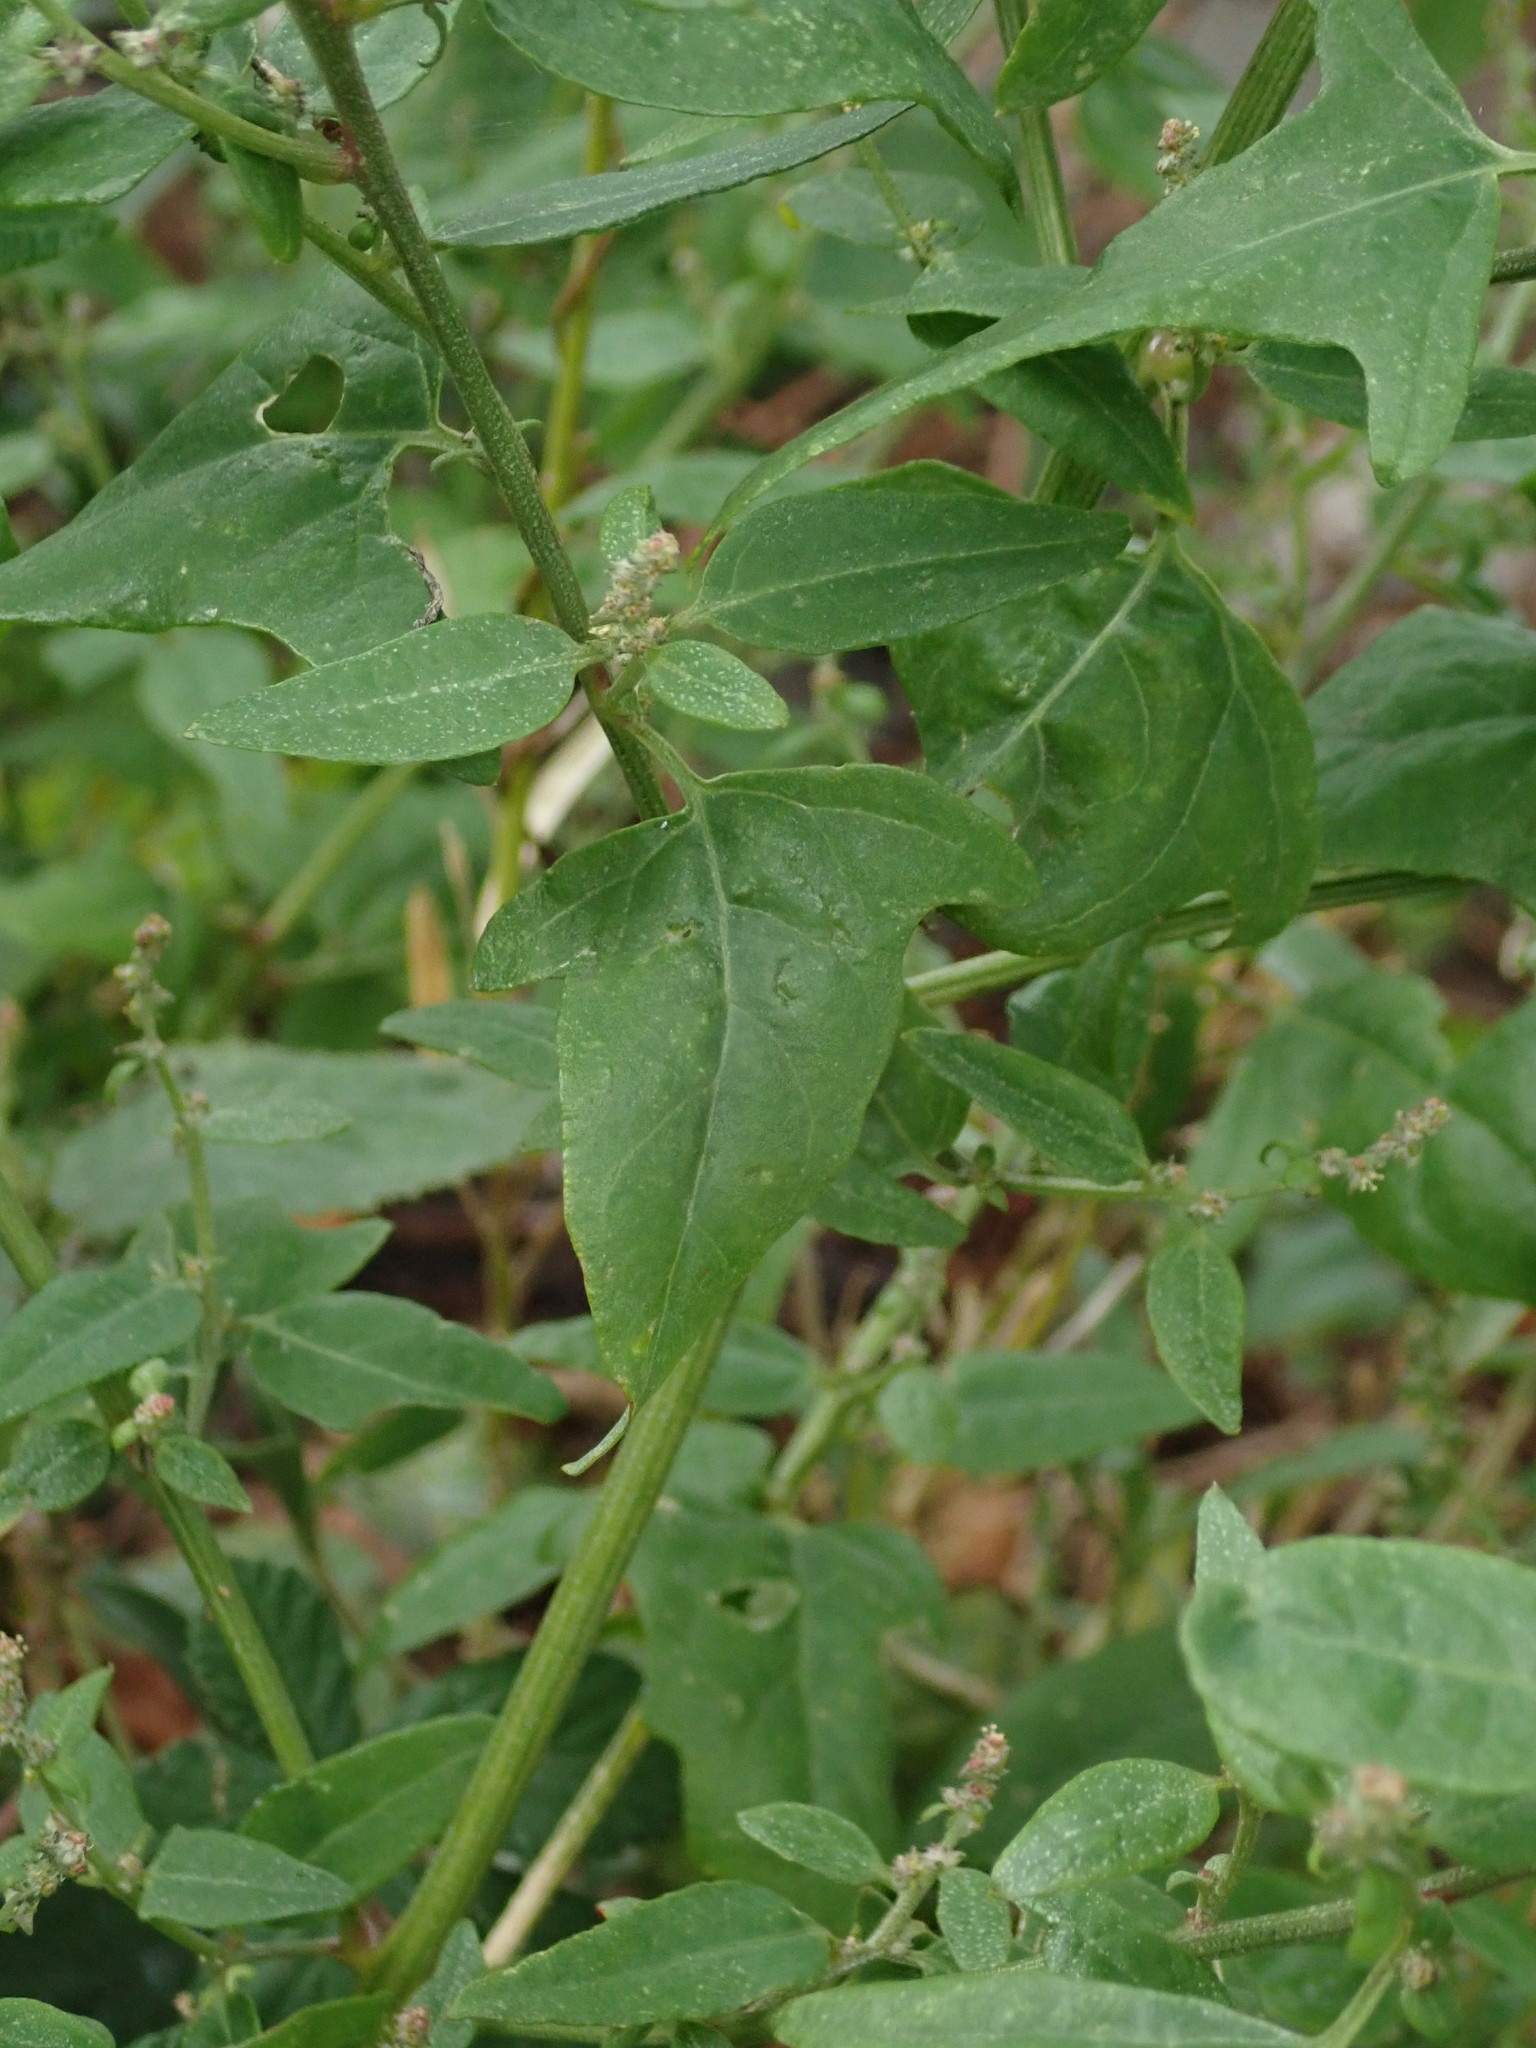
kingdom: Plantae
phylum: Tracheophyta
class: Magnoliopsida
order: Caryophyllales
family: Amaranthaceae
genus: Atriplex
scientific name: Atriplex prostrata
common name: Spear-leaved orache
